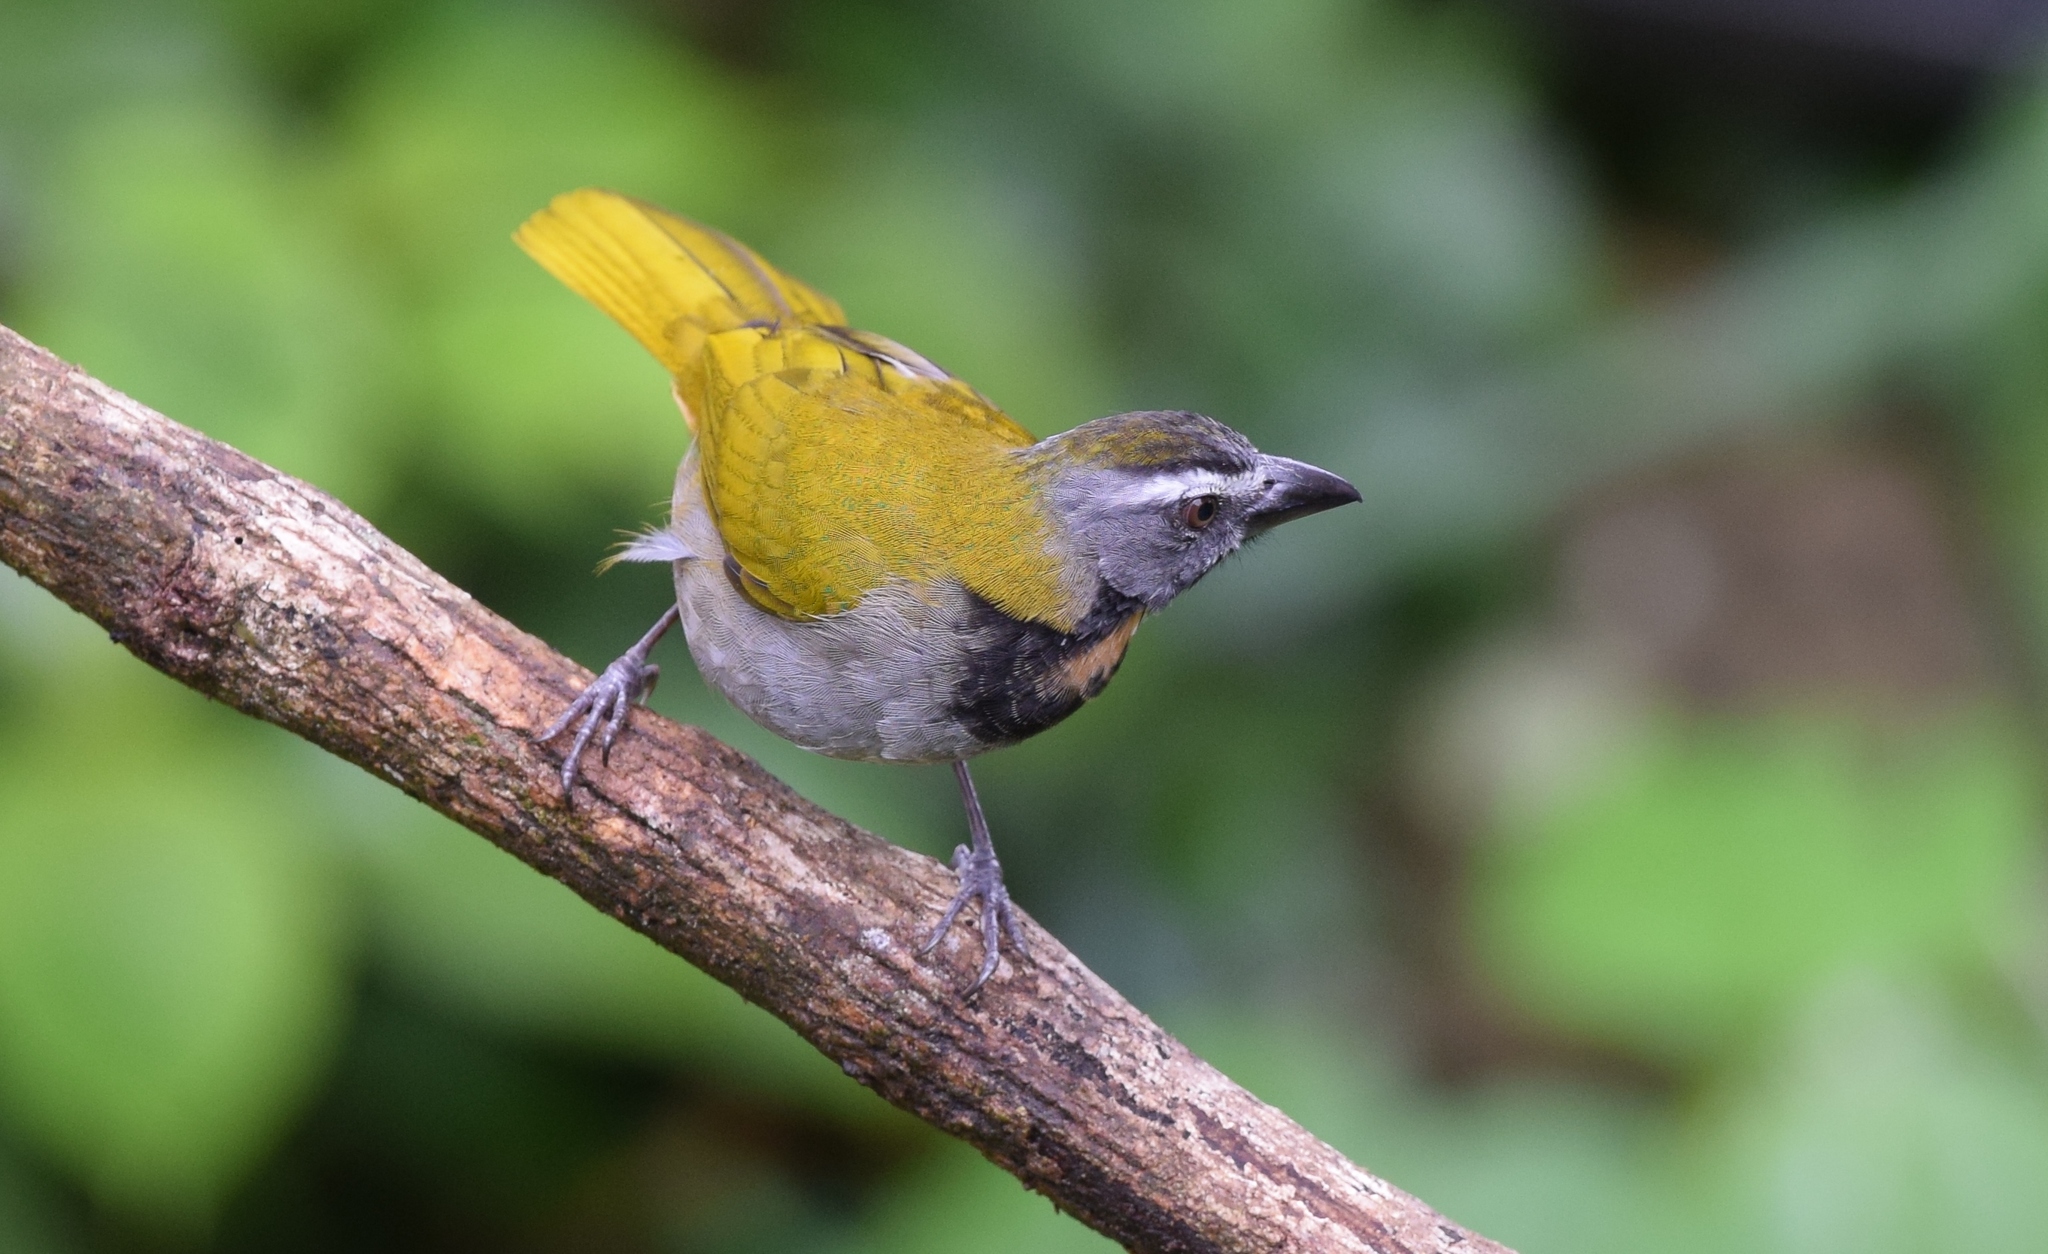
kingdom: Animalia
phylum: Chordata
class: Aves
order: Passeriformes
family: Thraupidae
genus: Saltator
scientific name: Saltator maximus
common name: Buff-throated saltator
